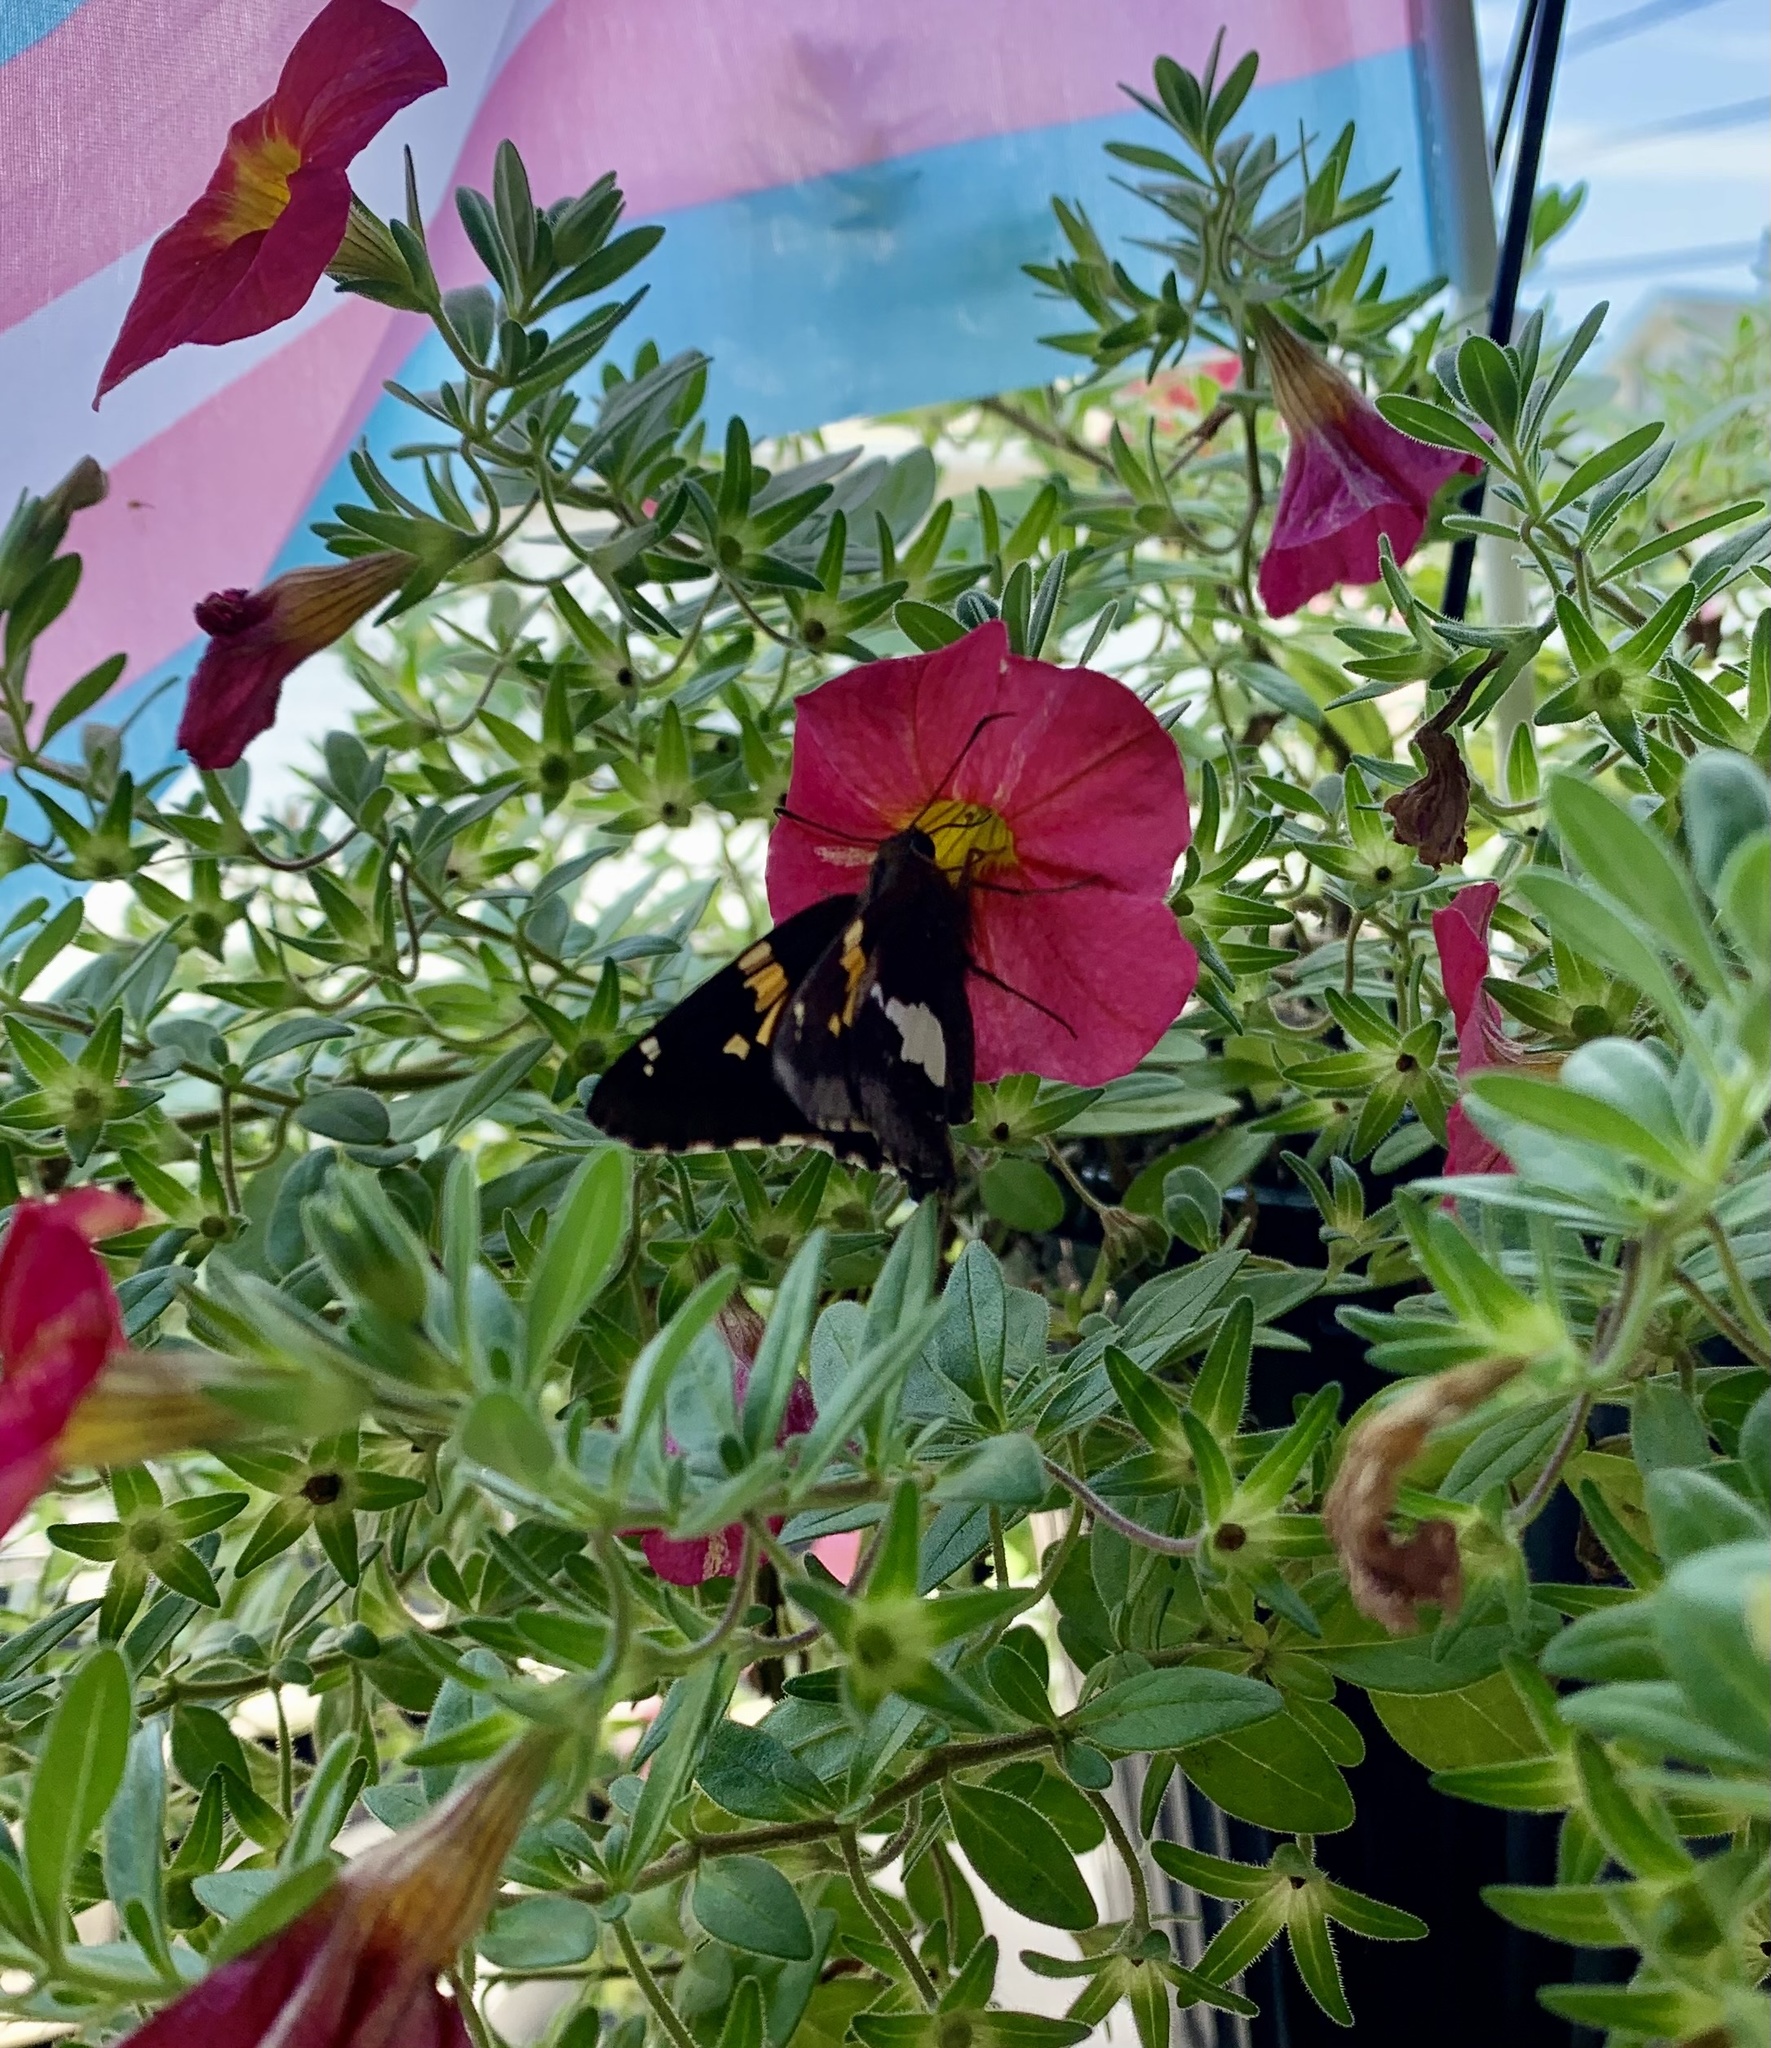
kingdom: Animalia
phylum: Arthropoda
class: Insecta
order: Lepidoptera
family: Hesperiidae
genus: Epargyreus
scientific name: Epargyreus clarus
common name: Silver-spotted skipper
